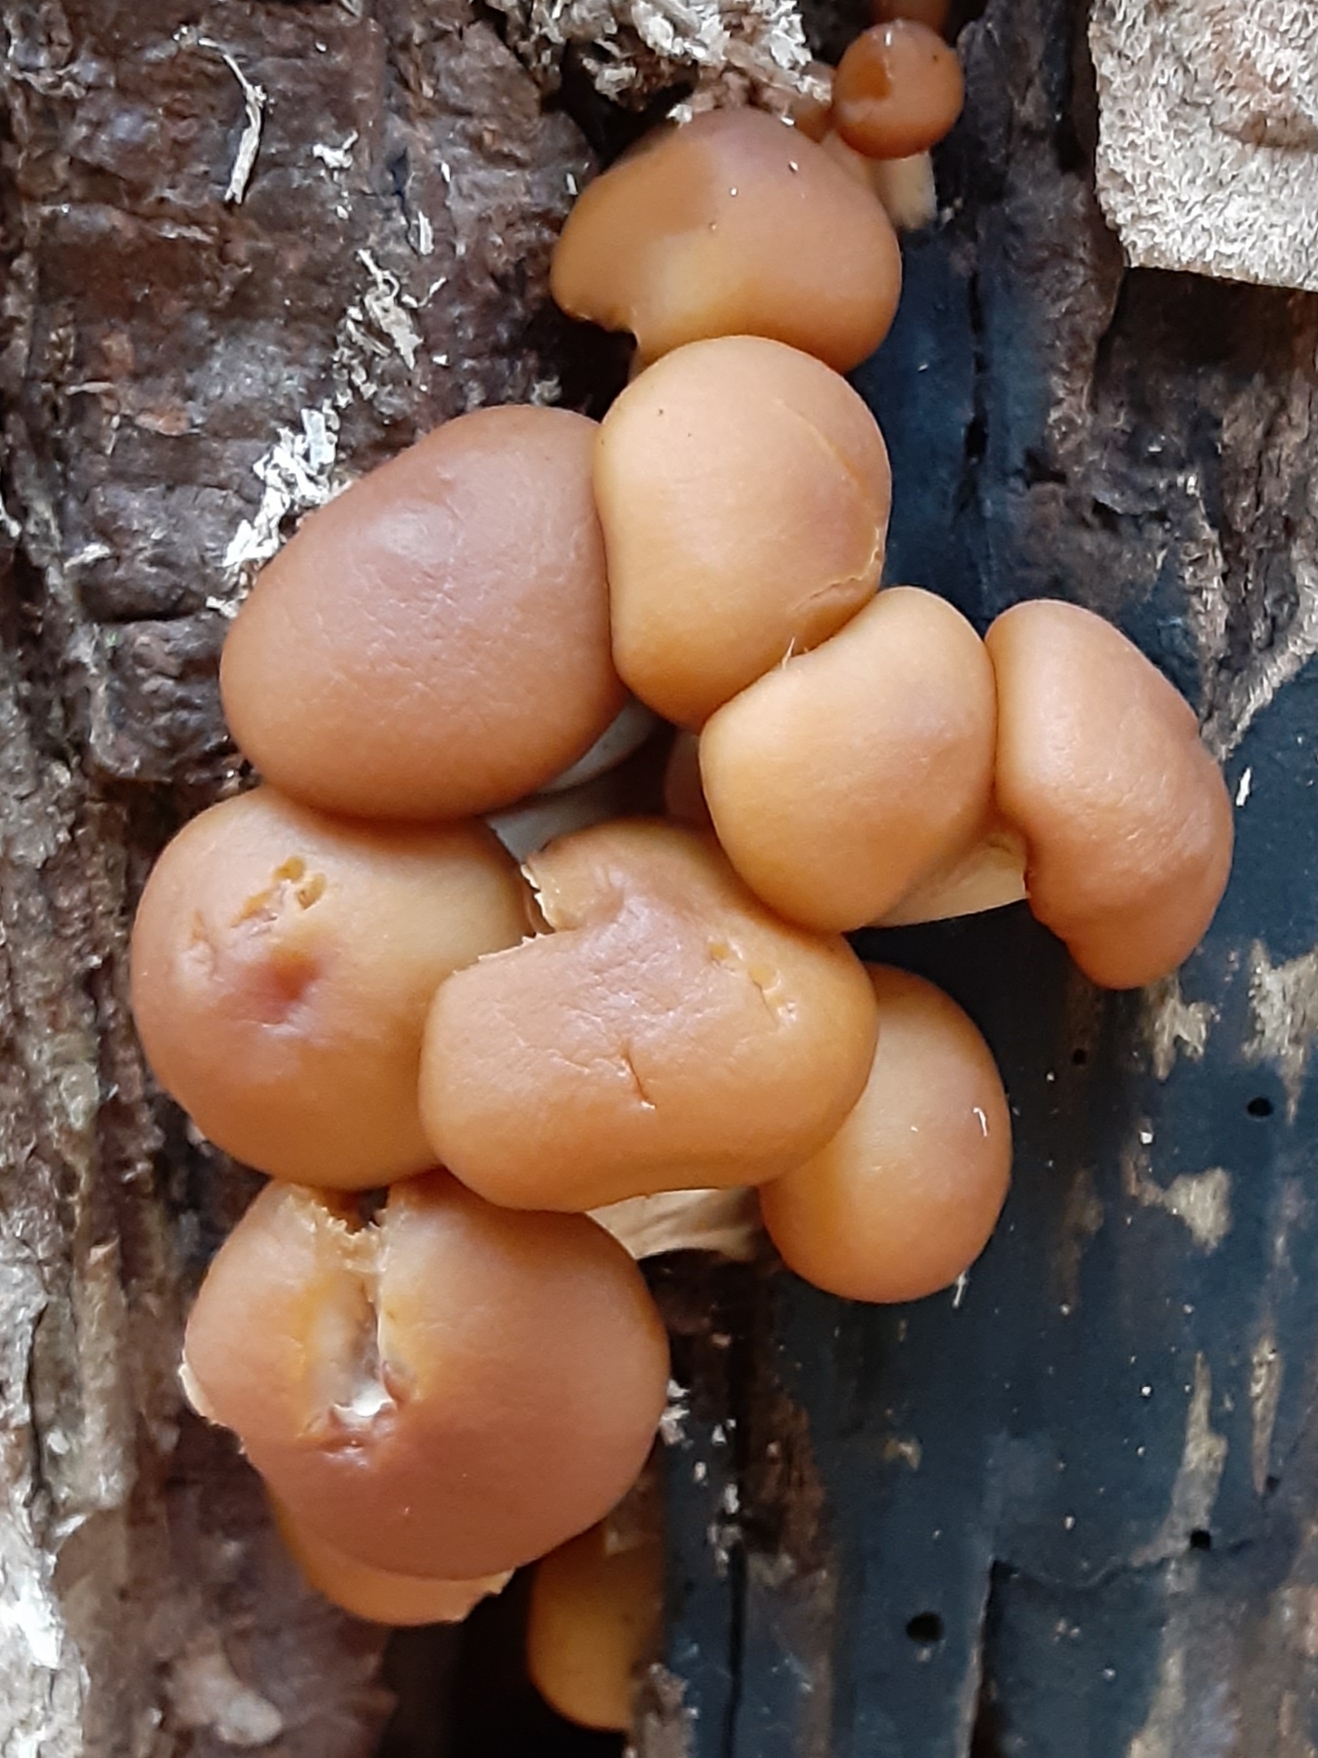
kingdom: Fungi
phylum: Basidiomycota
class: Agaricomycetes
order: Agaricales
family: Hymenogastraceae
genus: Galerina
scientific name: Galerina marginata
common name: Funeral bell
